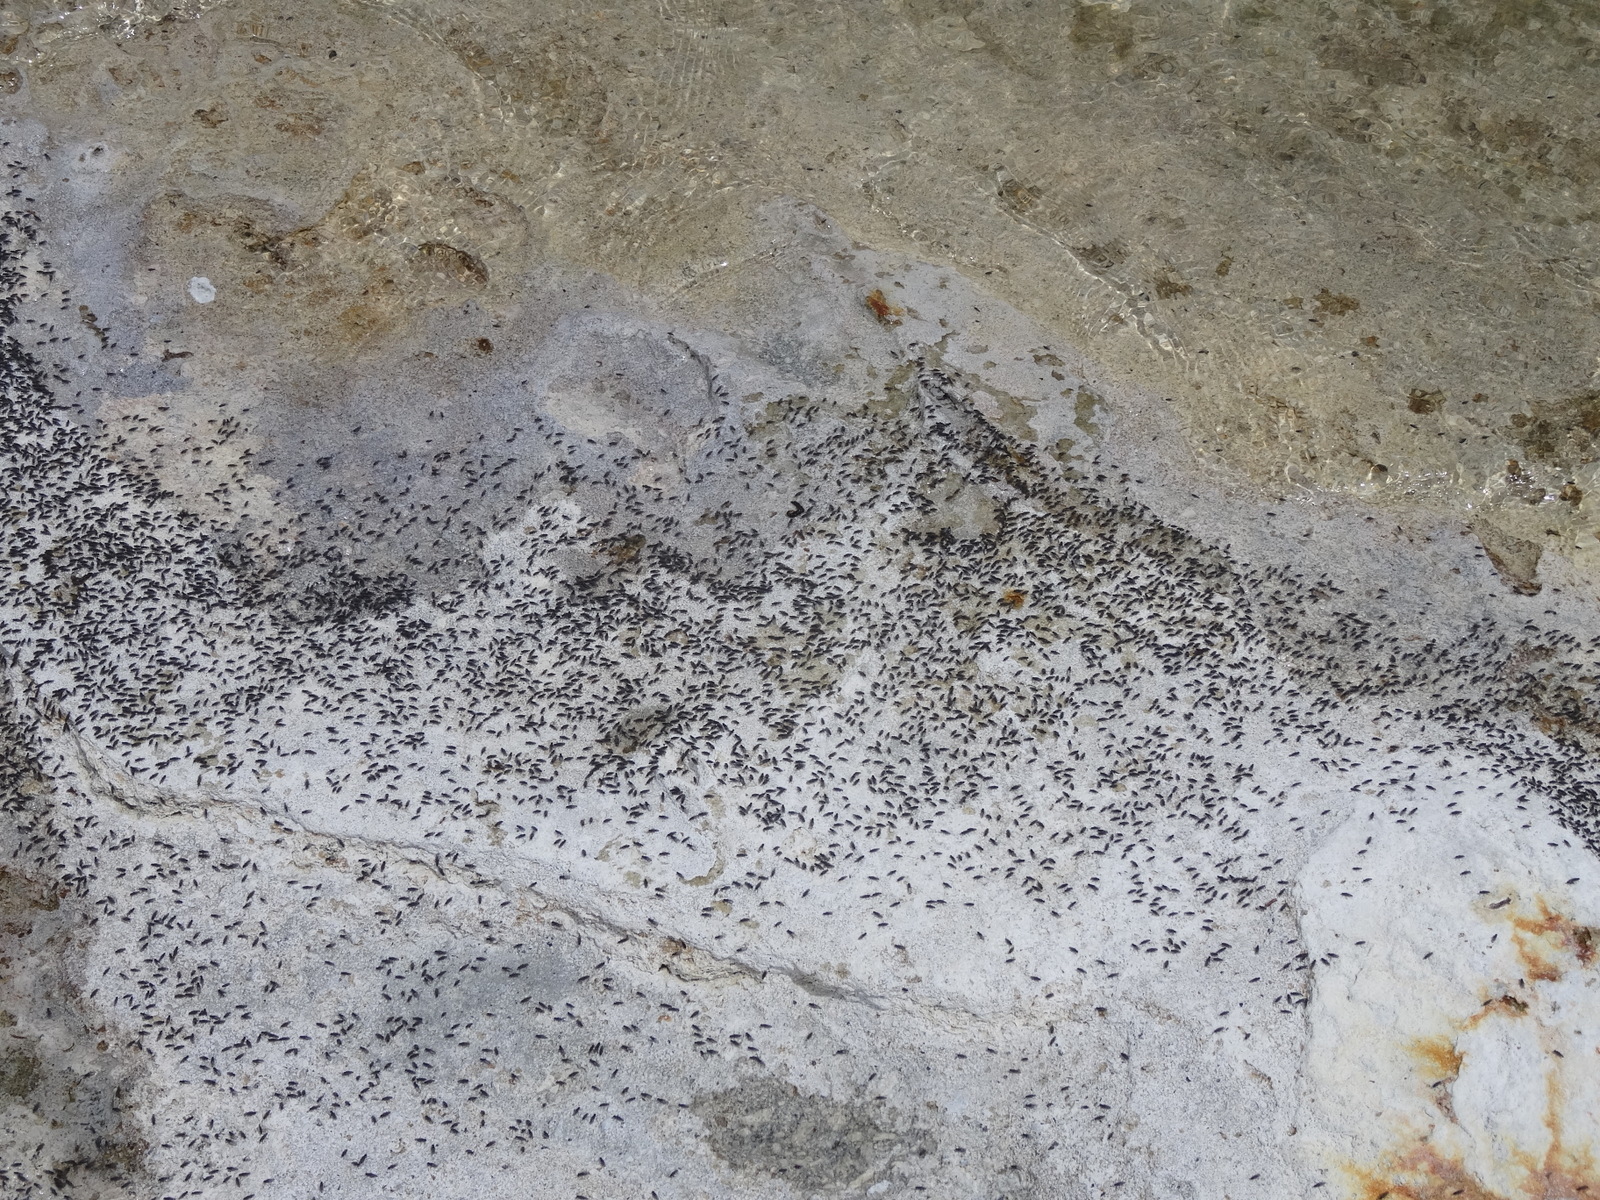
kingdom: Animalia
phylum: Arthropoda
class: Insecta
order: Diptera
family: Ephydridae
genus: Cirrula
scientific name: Cirrula hians
